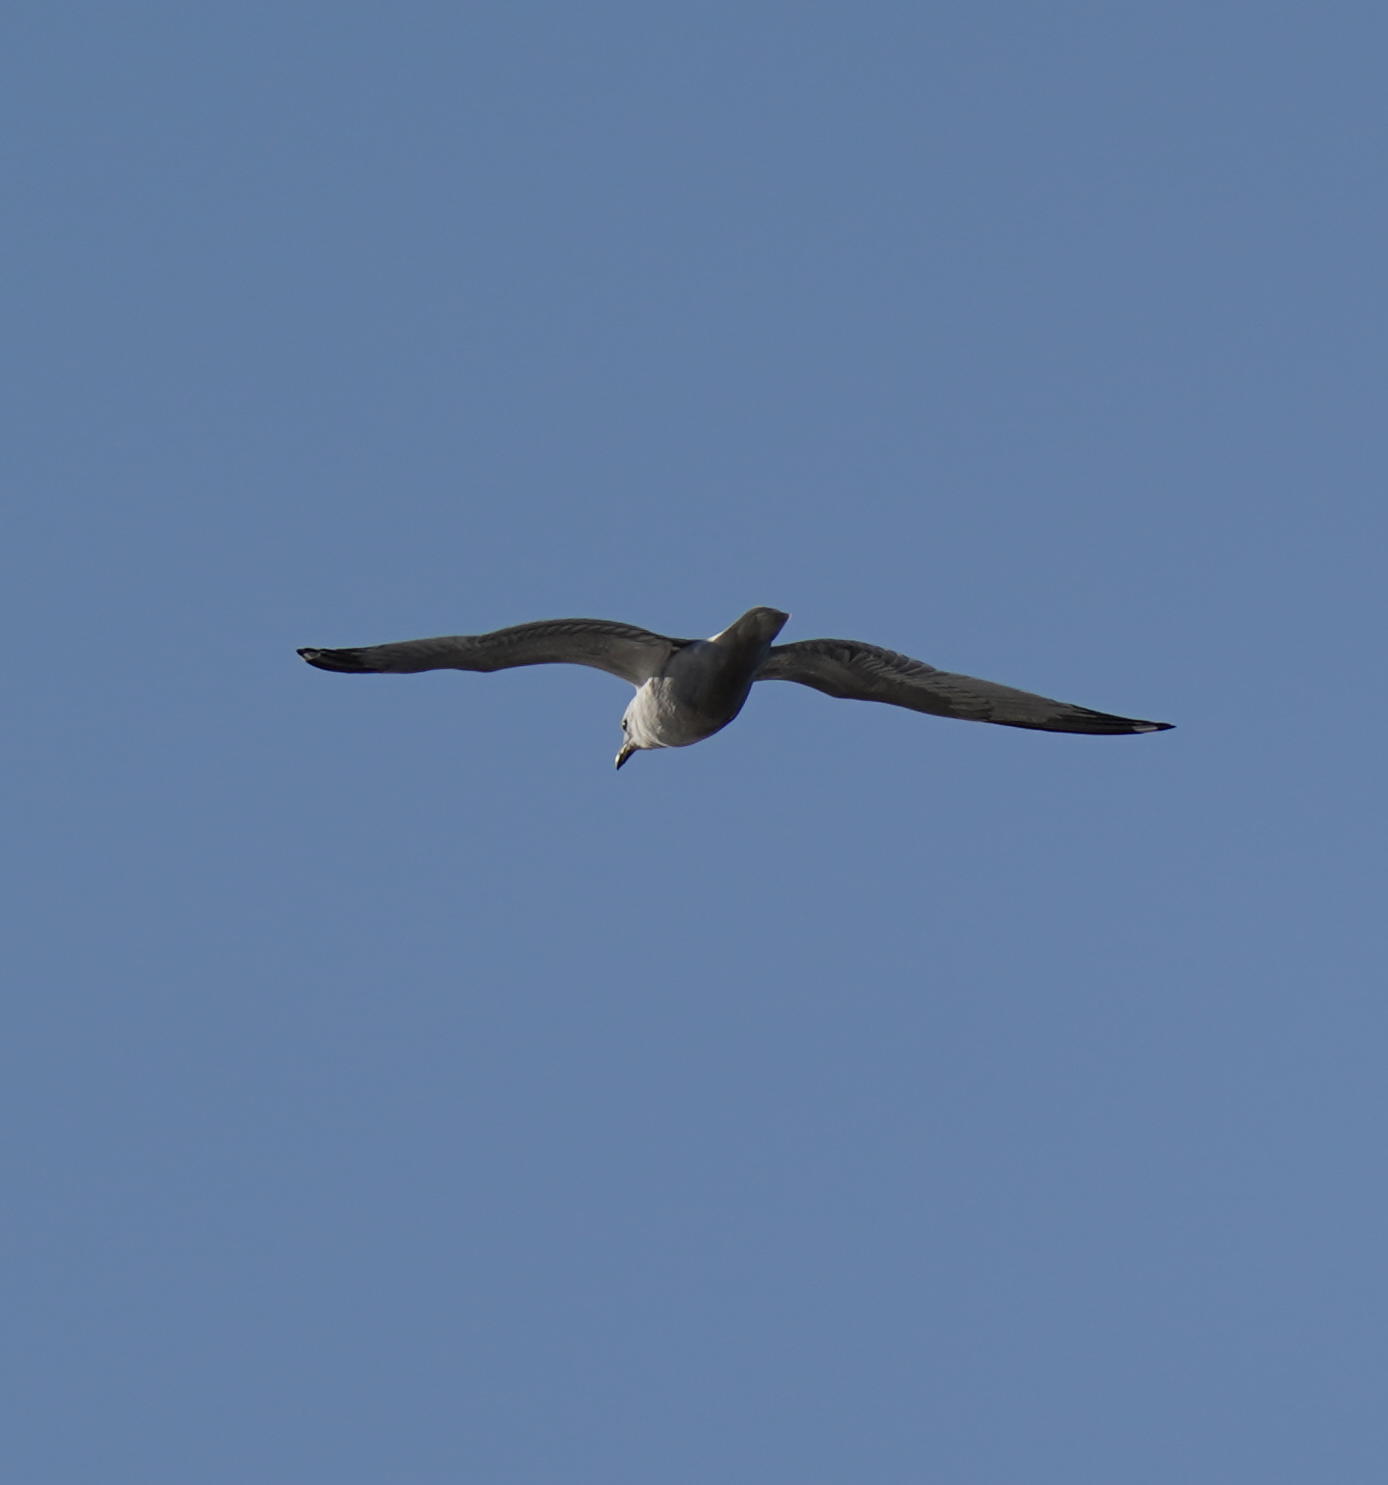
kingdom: Animalia
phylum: Chordata
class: Aves
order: Charadriiformes
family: Laridae
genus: Larus
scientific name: Larus delawarensis
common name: Ring-billed gull
